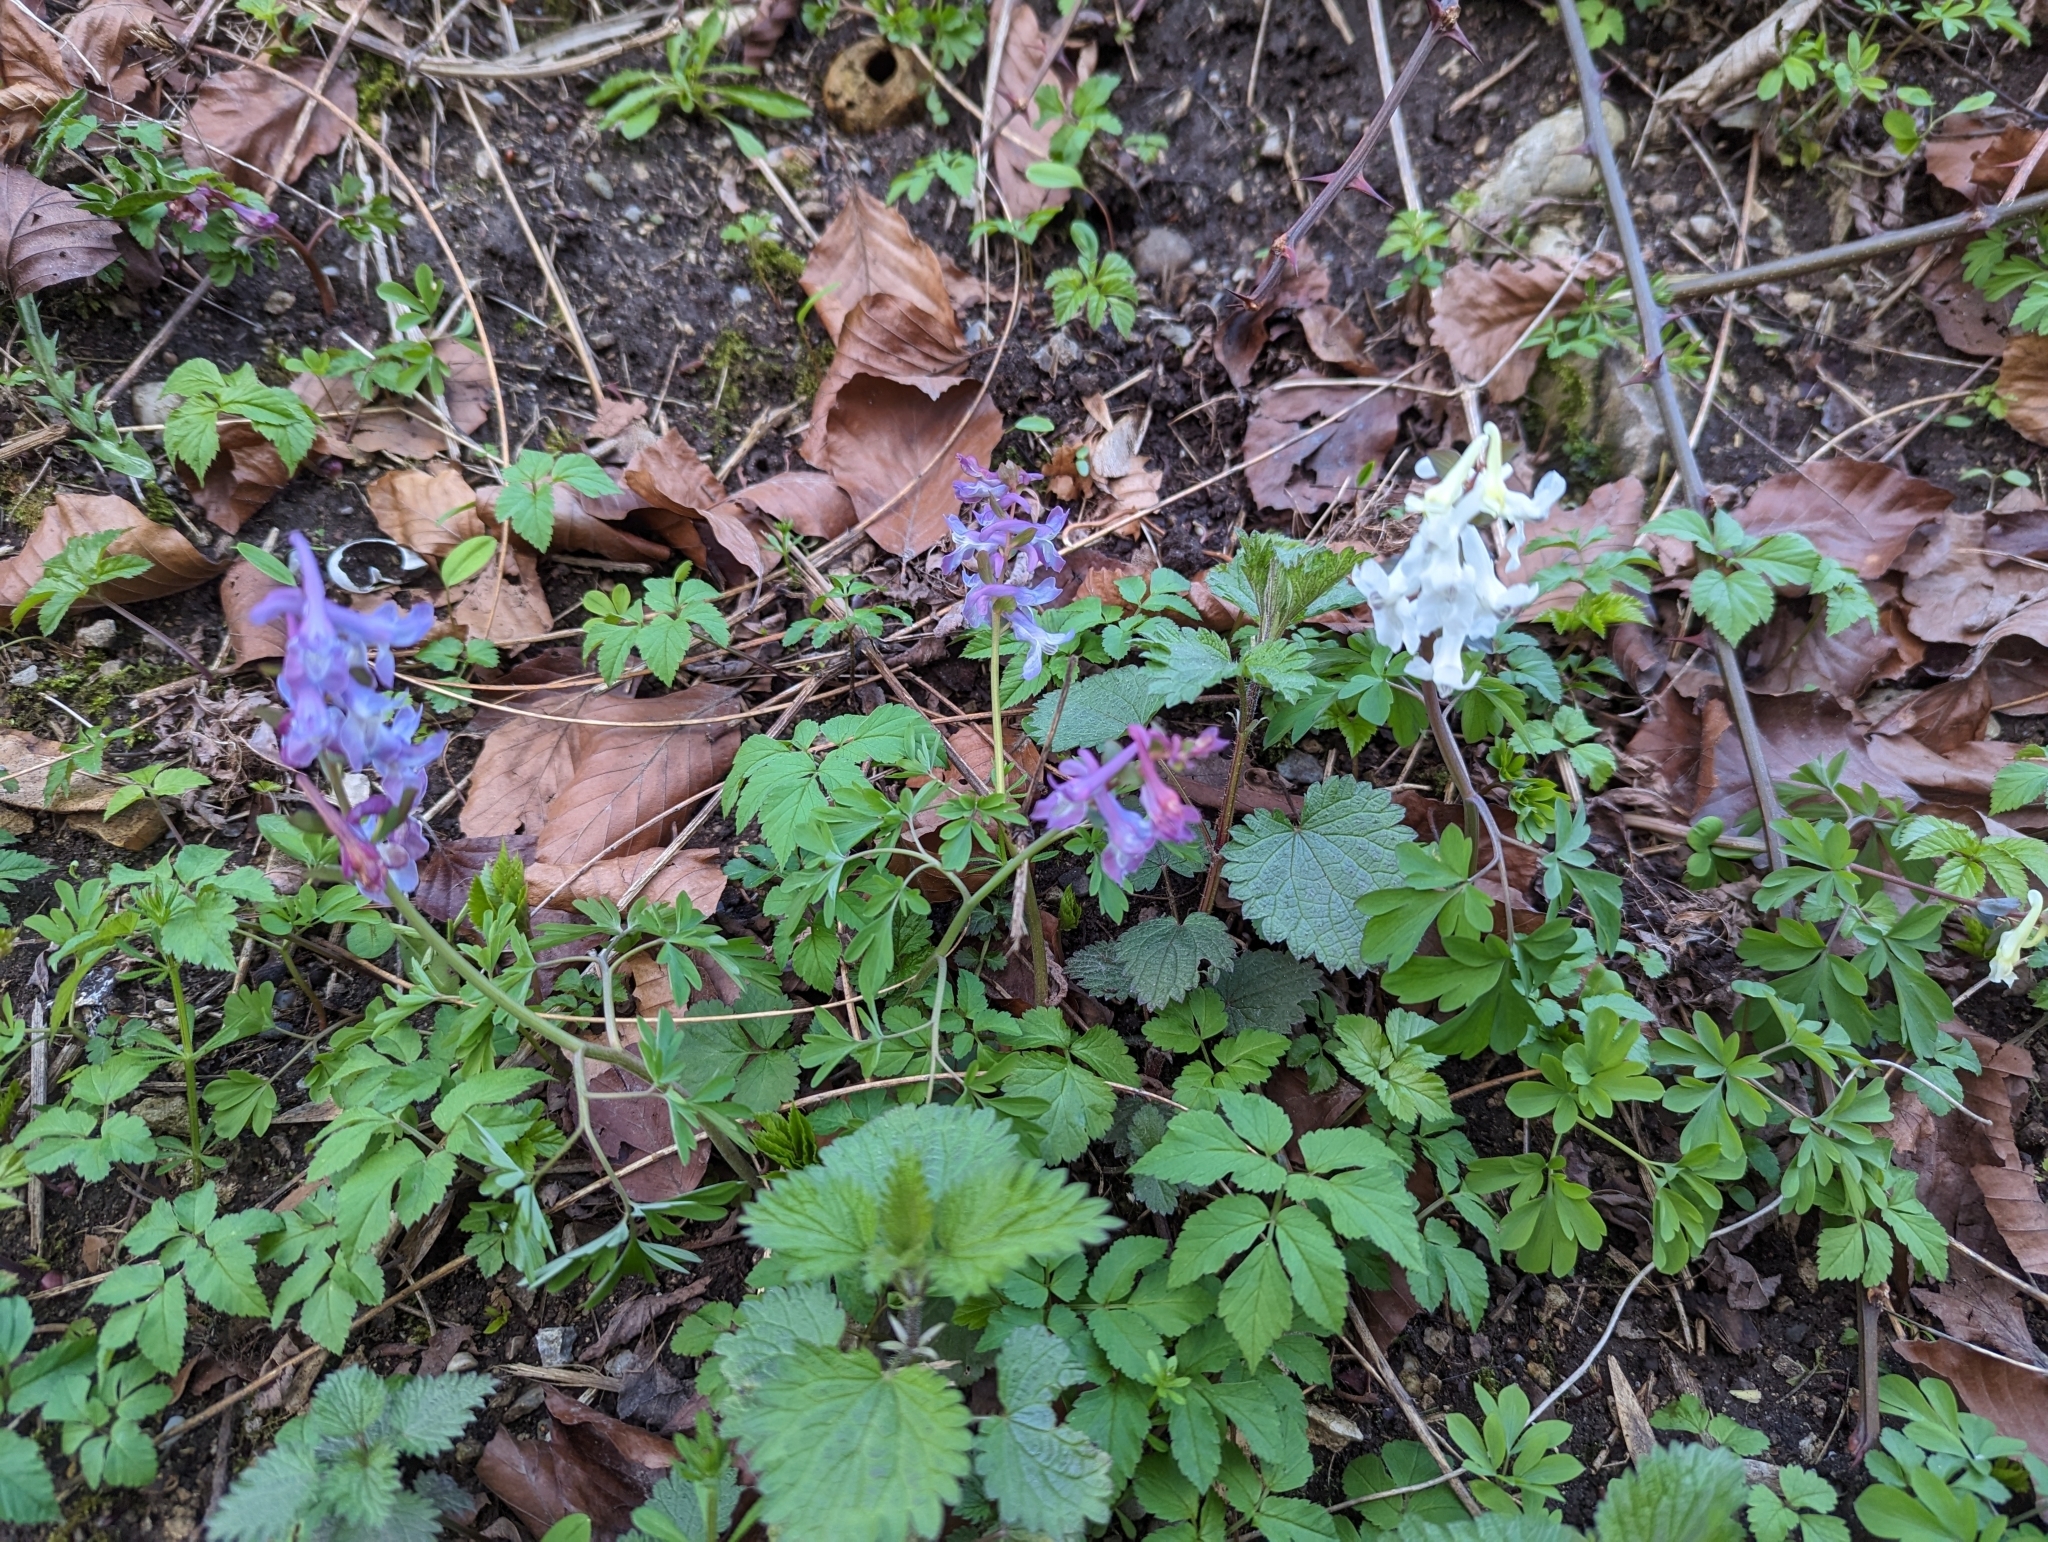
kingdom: Plantae
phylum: Tracheophyta
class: Magnoliopsida
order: Ranunculales
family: Papaveraceae
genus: Corydalis
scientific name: Corydalis cava
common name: Hollowroot
